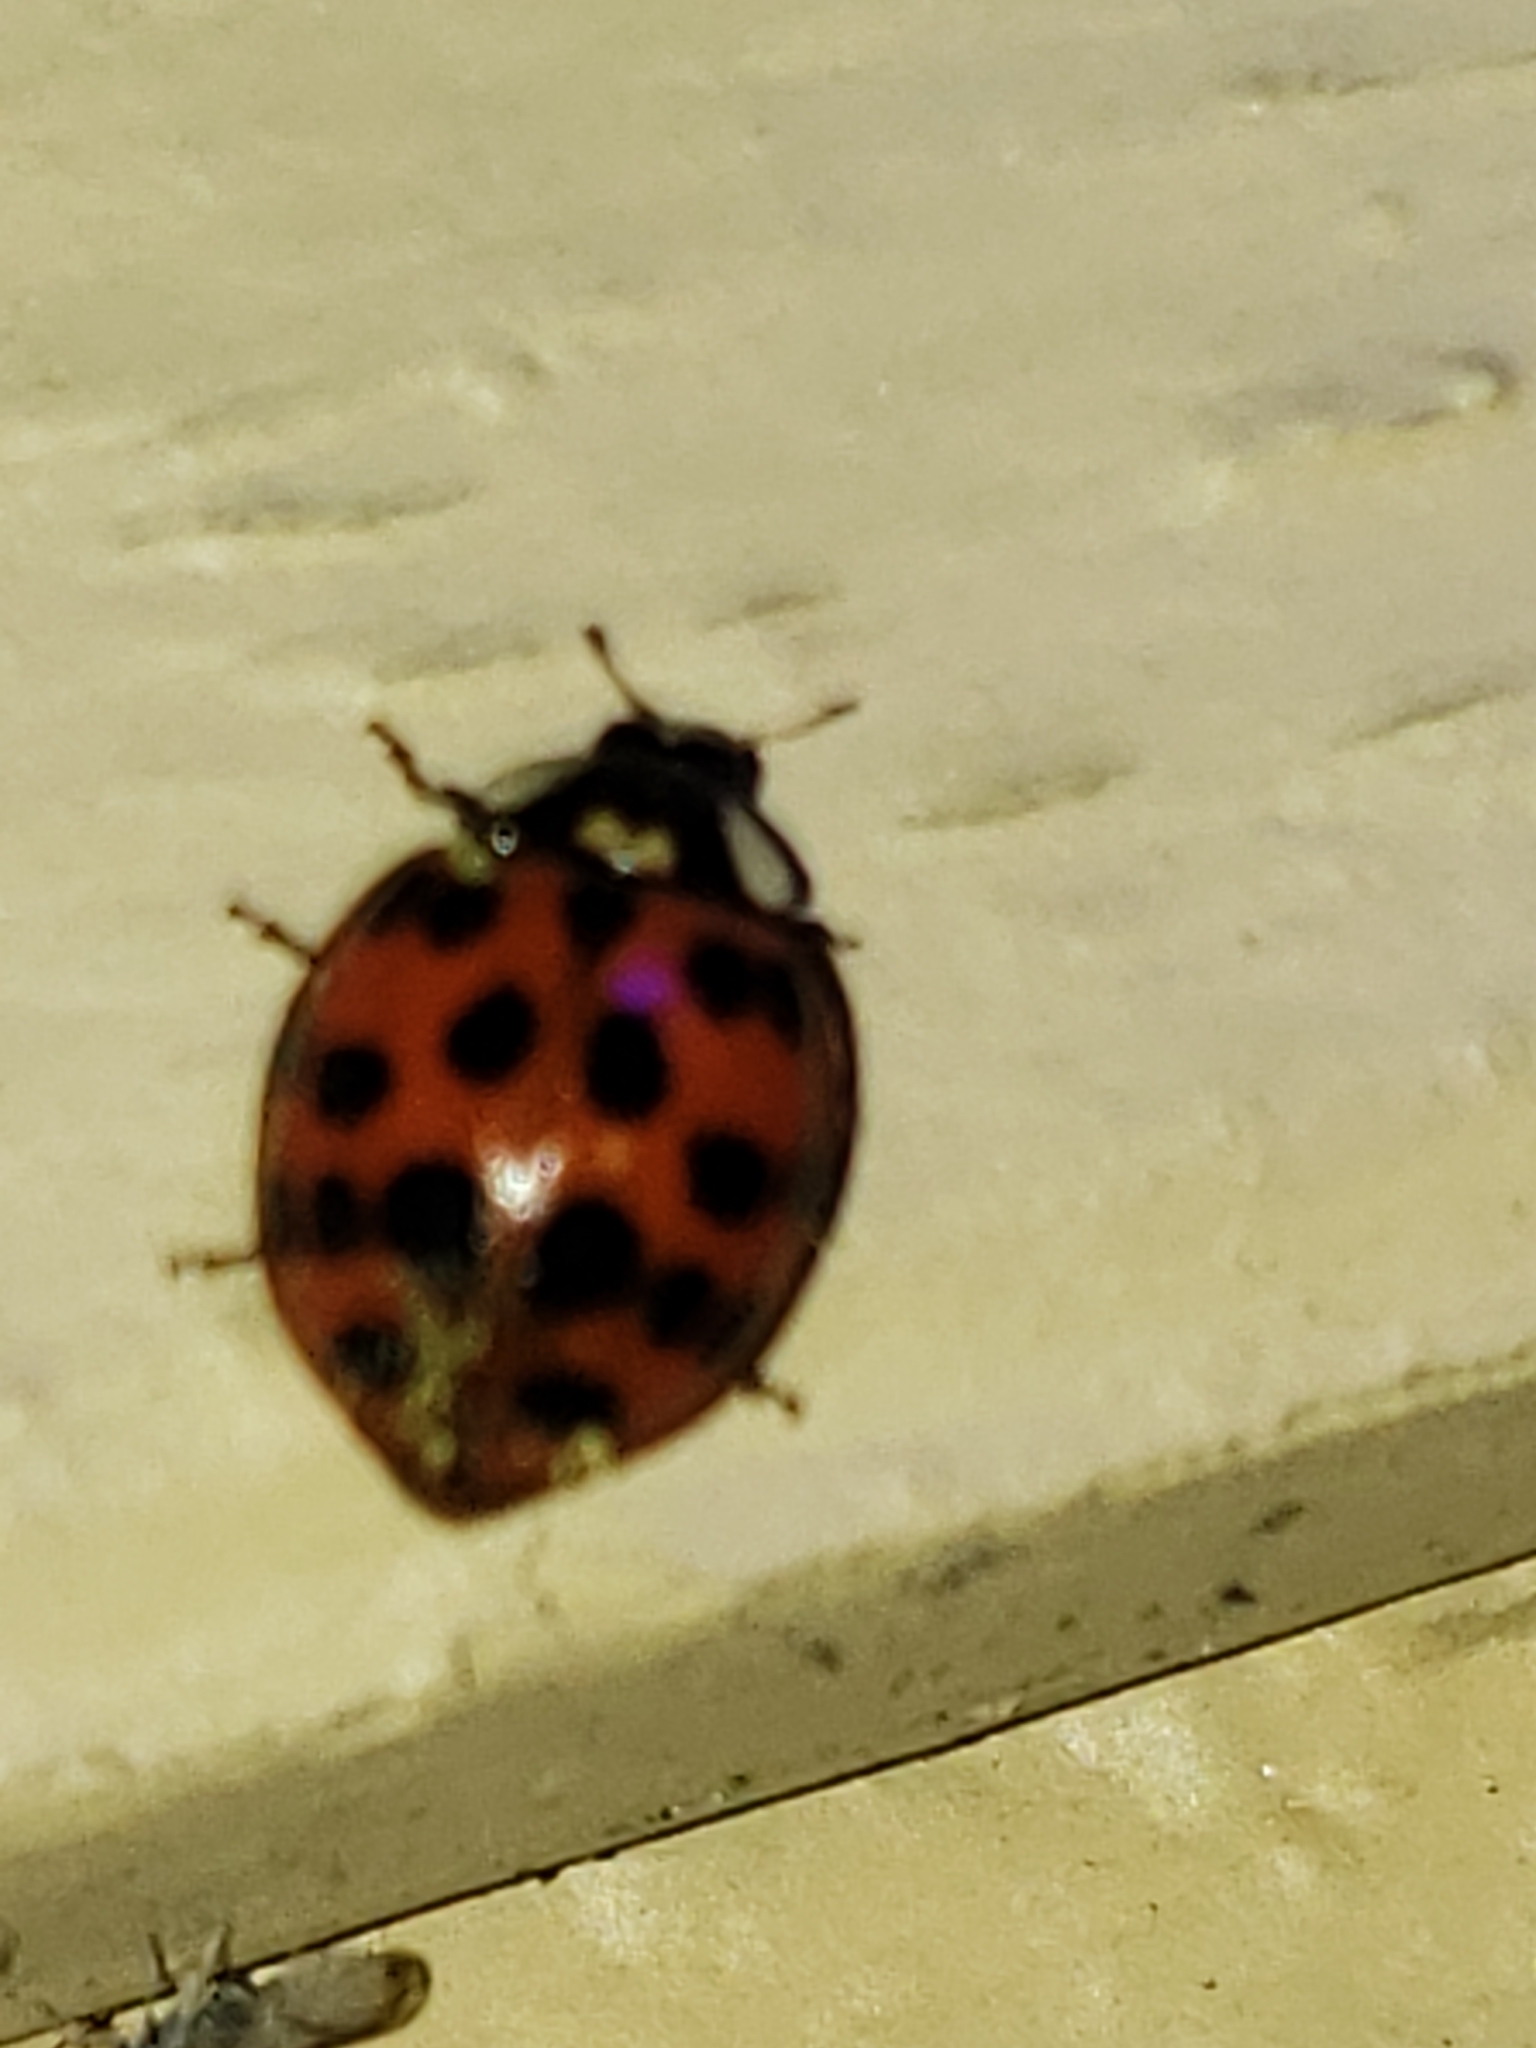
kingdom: Animalia
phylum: Arthropoda
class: Insecta
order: Coleoptera
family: Coccinellidae
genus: Harmonia
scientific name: Harmonia axyridis
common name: Harlequin ladybird
